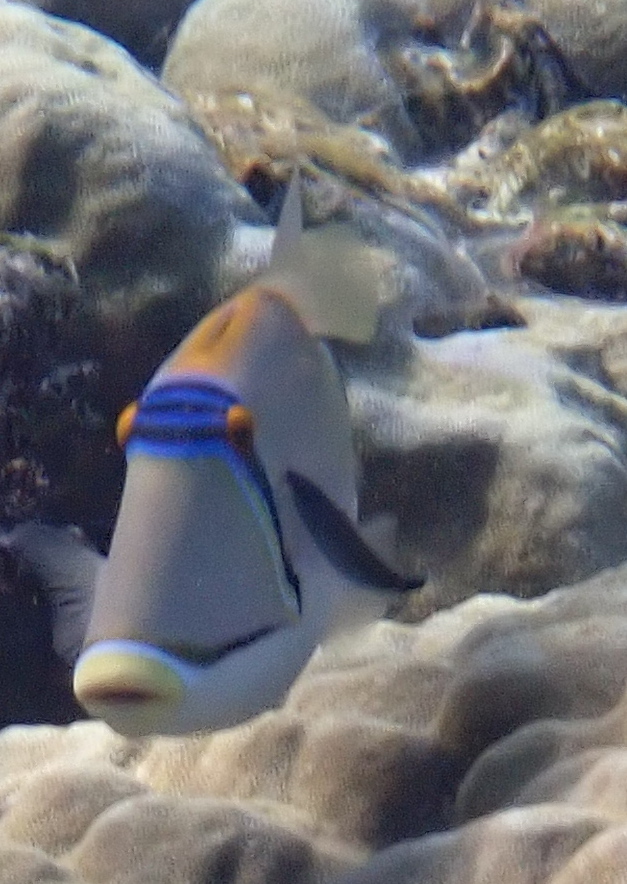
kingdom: Animalia
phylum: Chordata
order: Tetraodontiformes
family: Balistidae
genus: Rhinecanthus
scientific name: Rhinecanthus assasi
